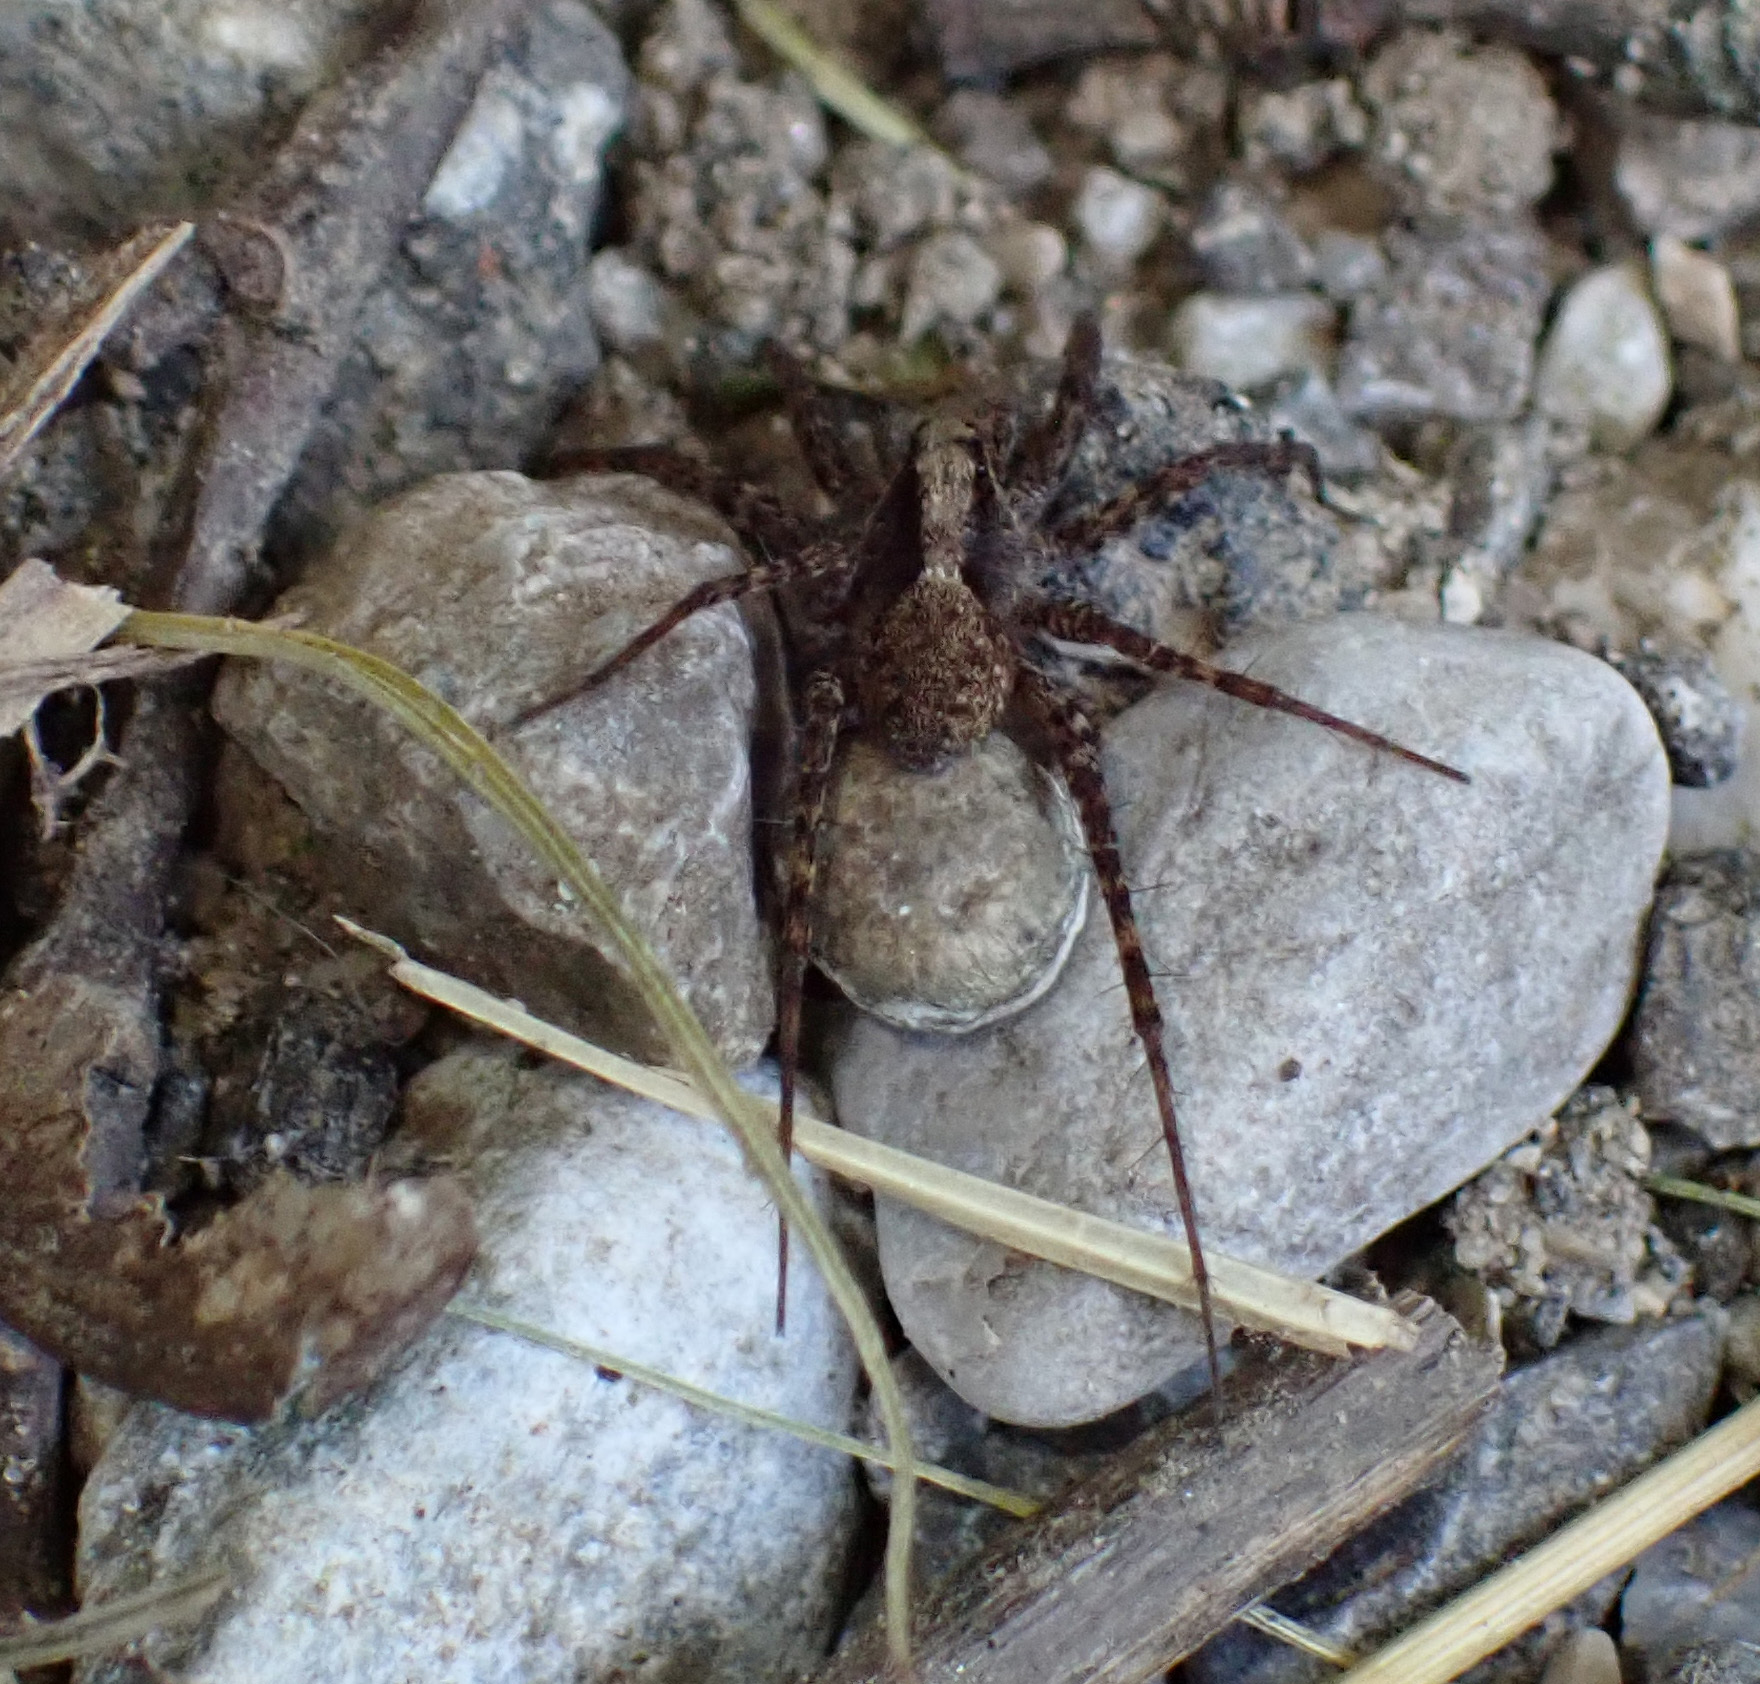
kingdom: Animalia
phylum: Arthropoda
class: Arachnida
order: Araneae
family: Lycosidae
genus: Pardosa
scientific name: Pardosa
